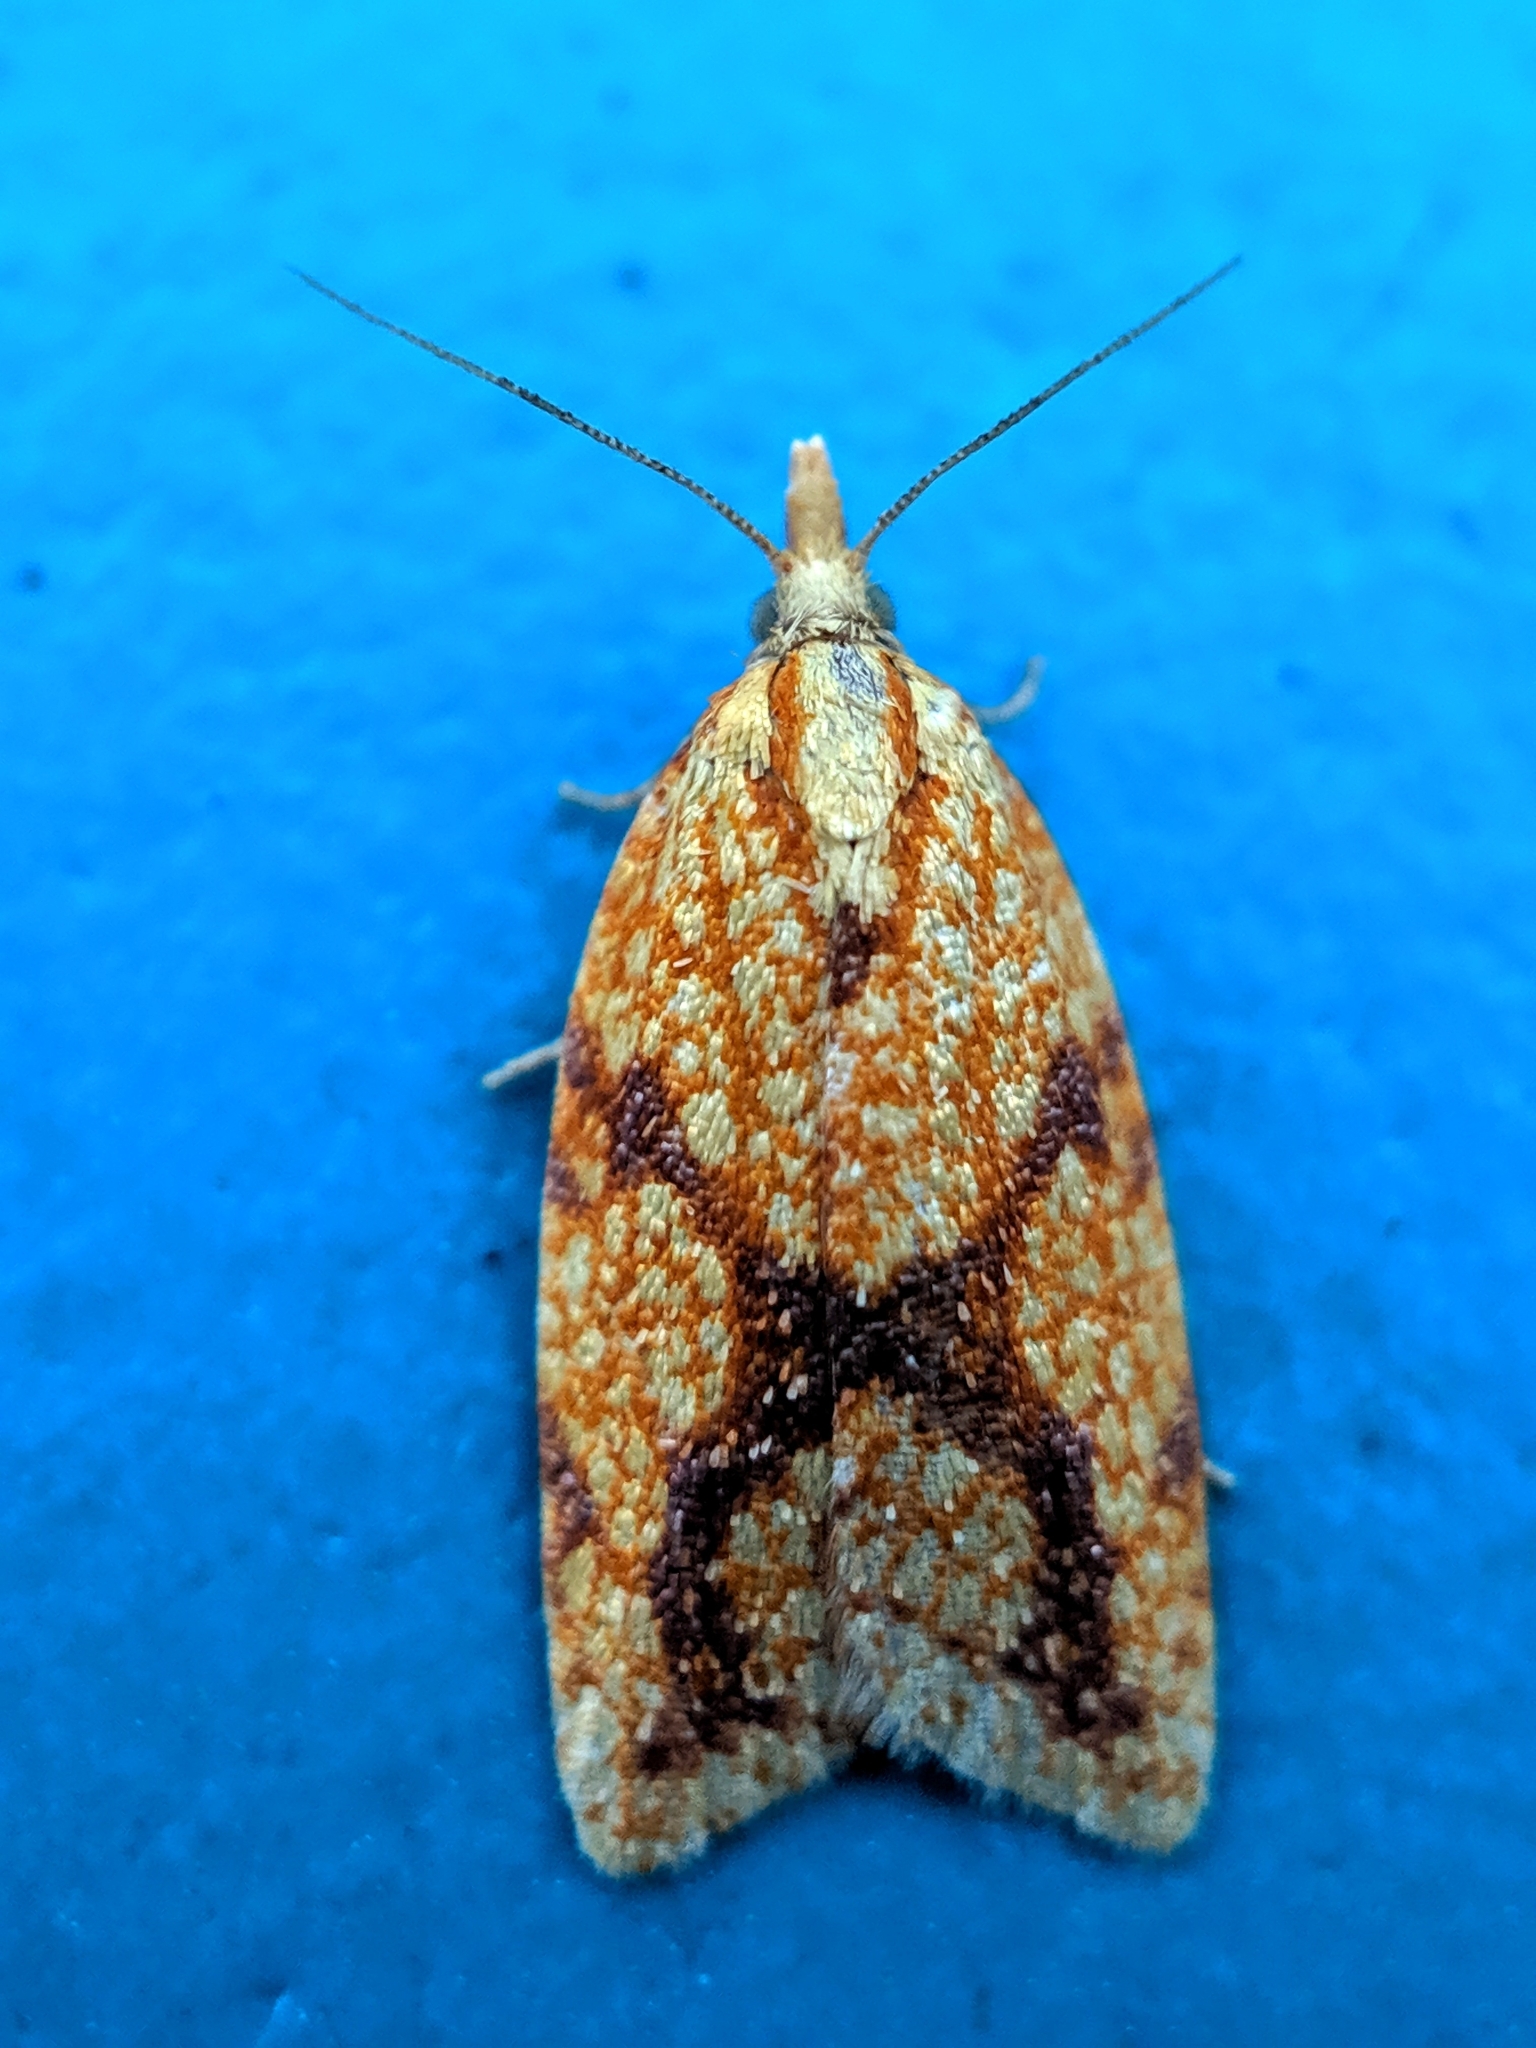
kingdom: Animalia
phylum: Arthropoda
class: Insecta
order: Lepidoptera
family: Tortricidae
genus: Sparganothis
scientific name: Sparganothis sulfureana
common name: Sparganothis fruitworm moth
